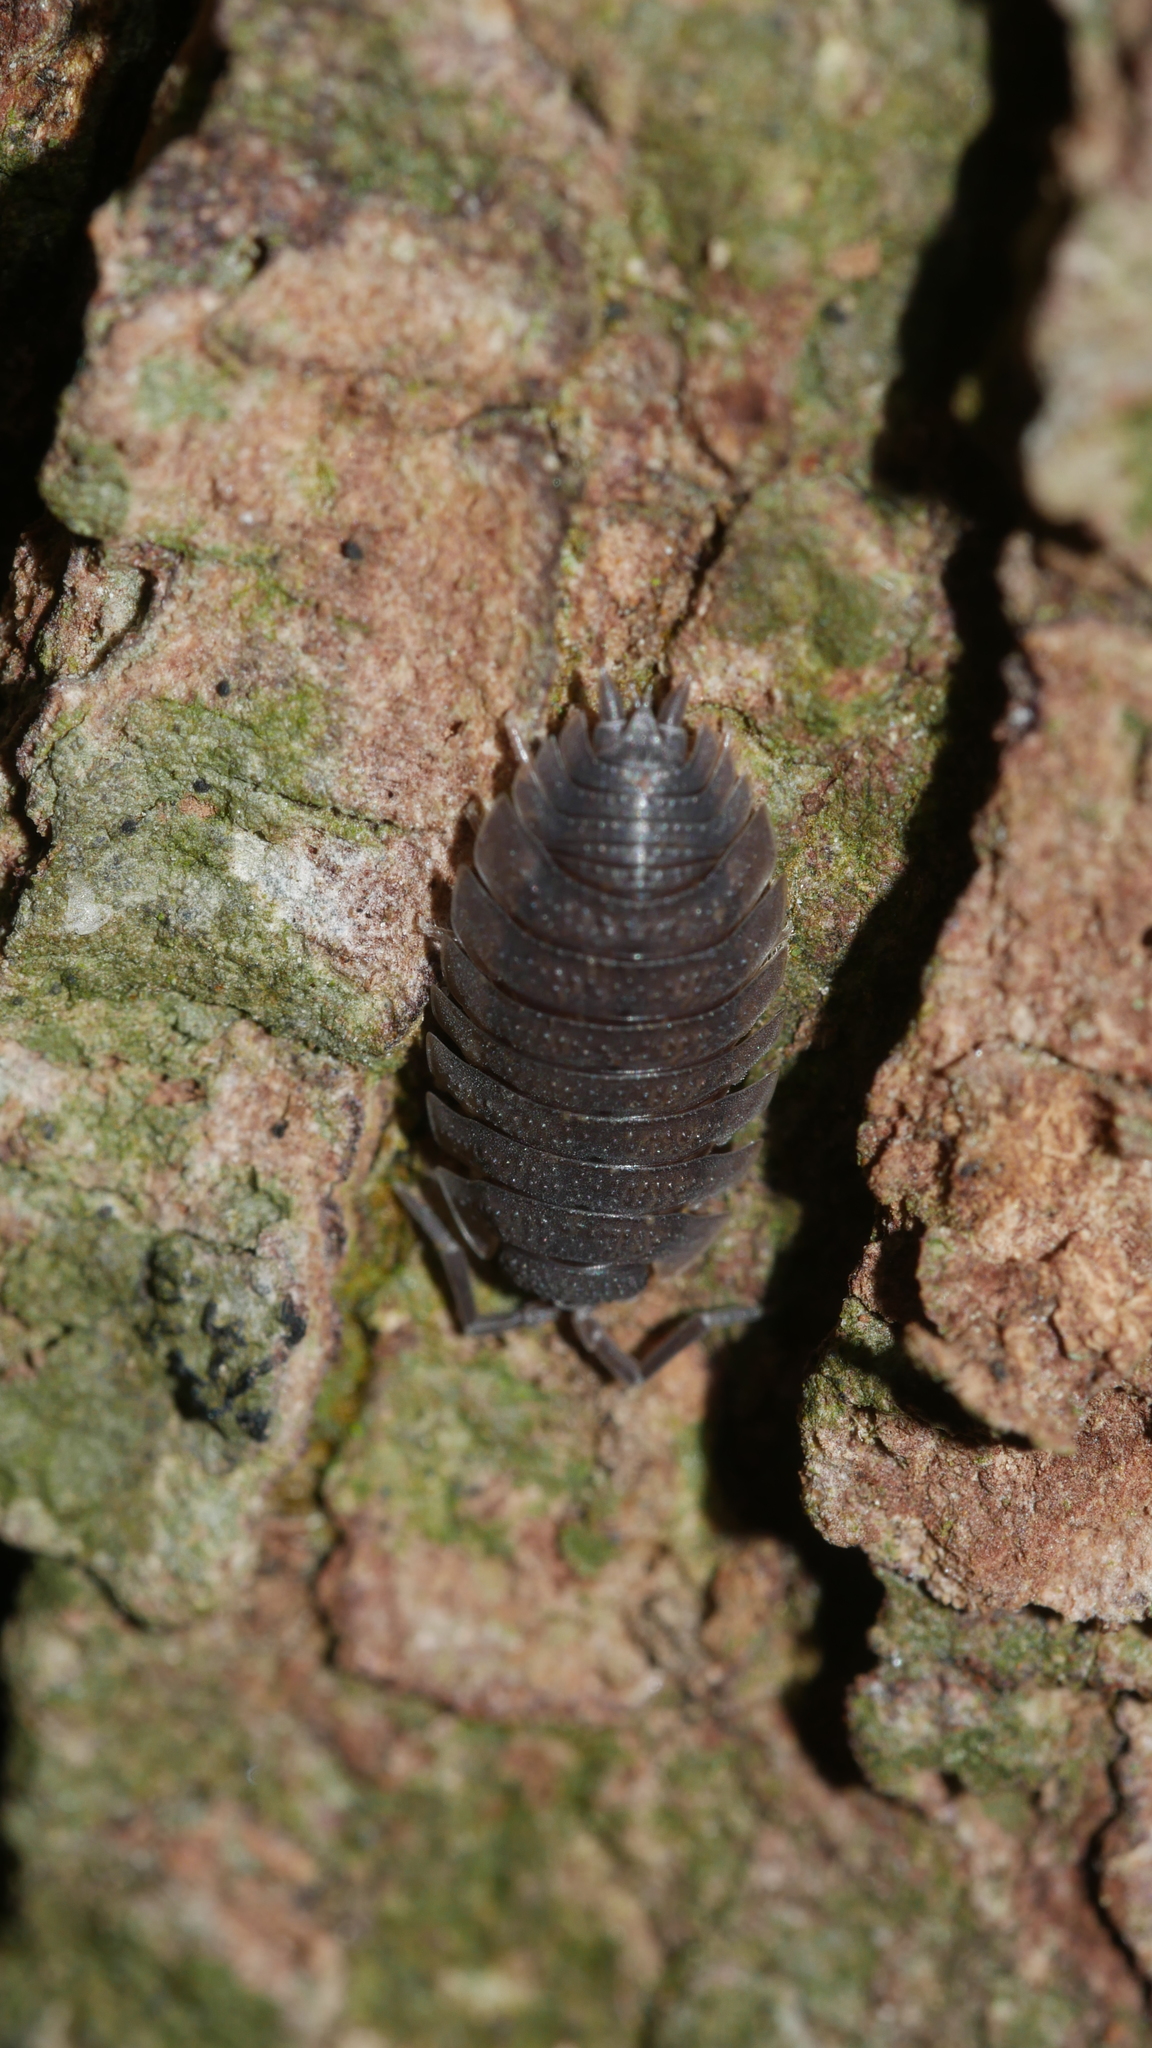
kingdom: Animalia
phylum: Arthropoda
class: Malacostraca
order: Isopoda
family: Porcellionidae
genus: Porcellio
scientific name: Porcellio scaber
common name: Common rough woodlouse
